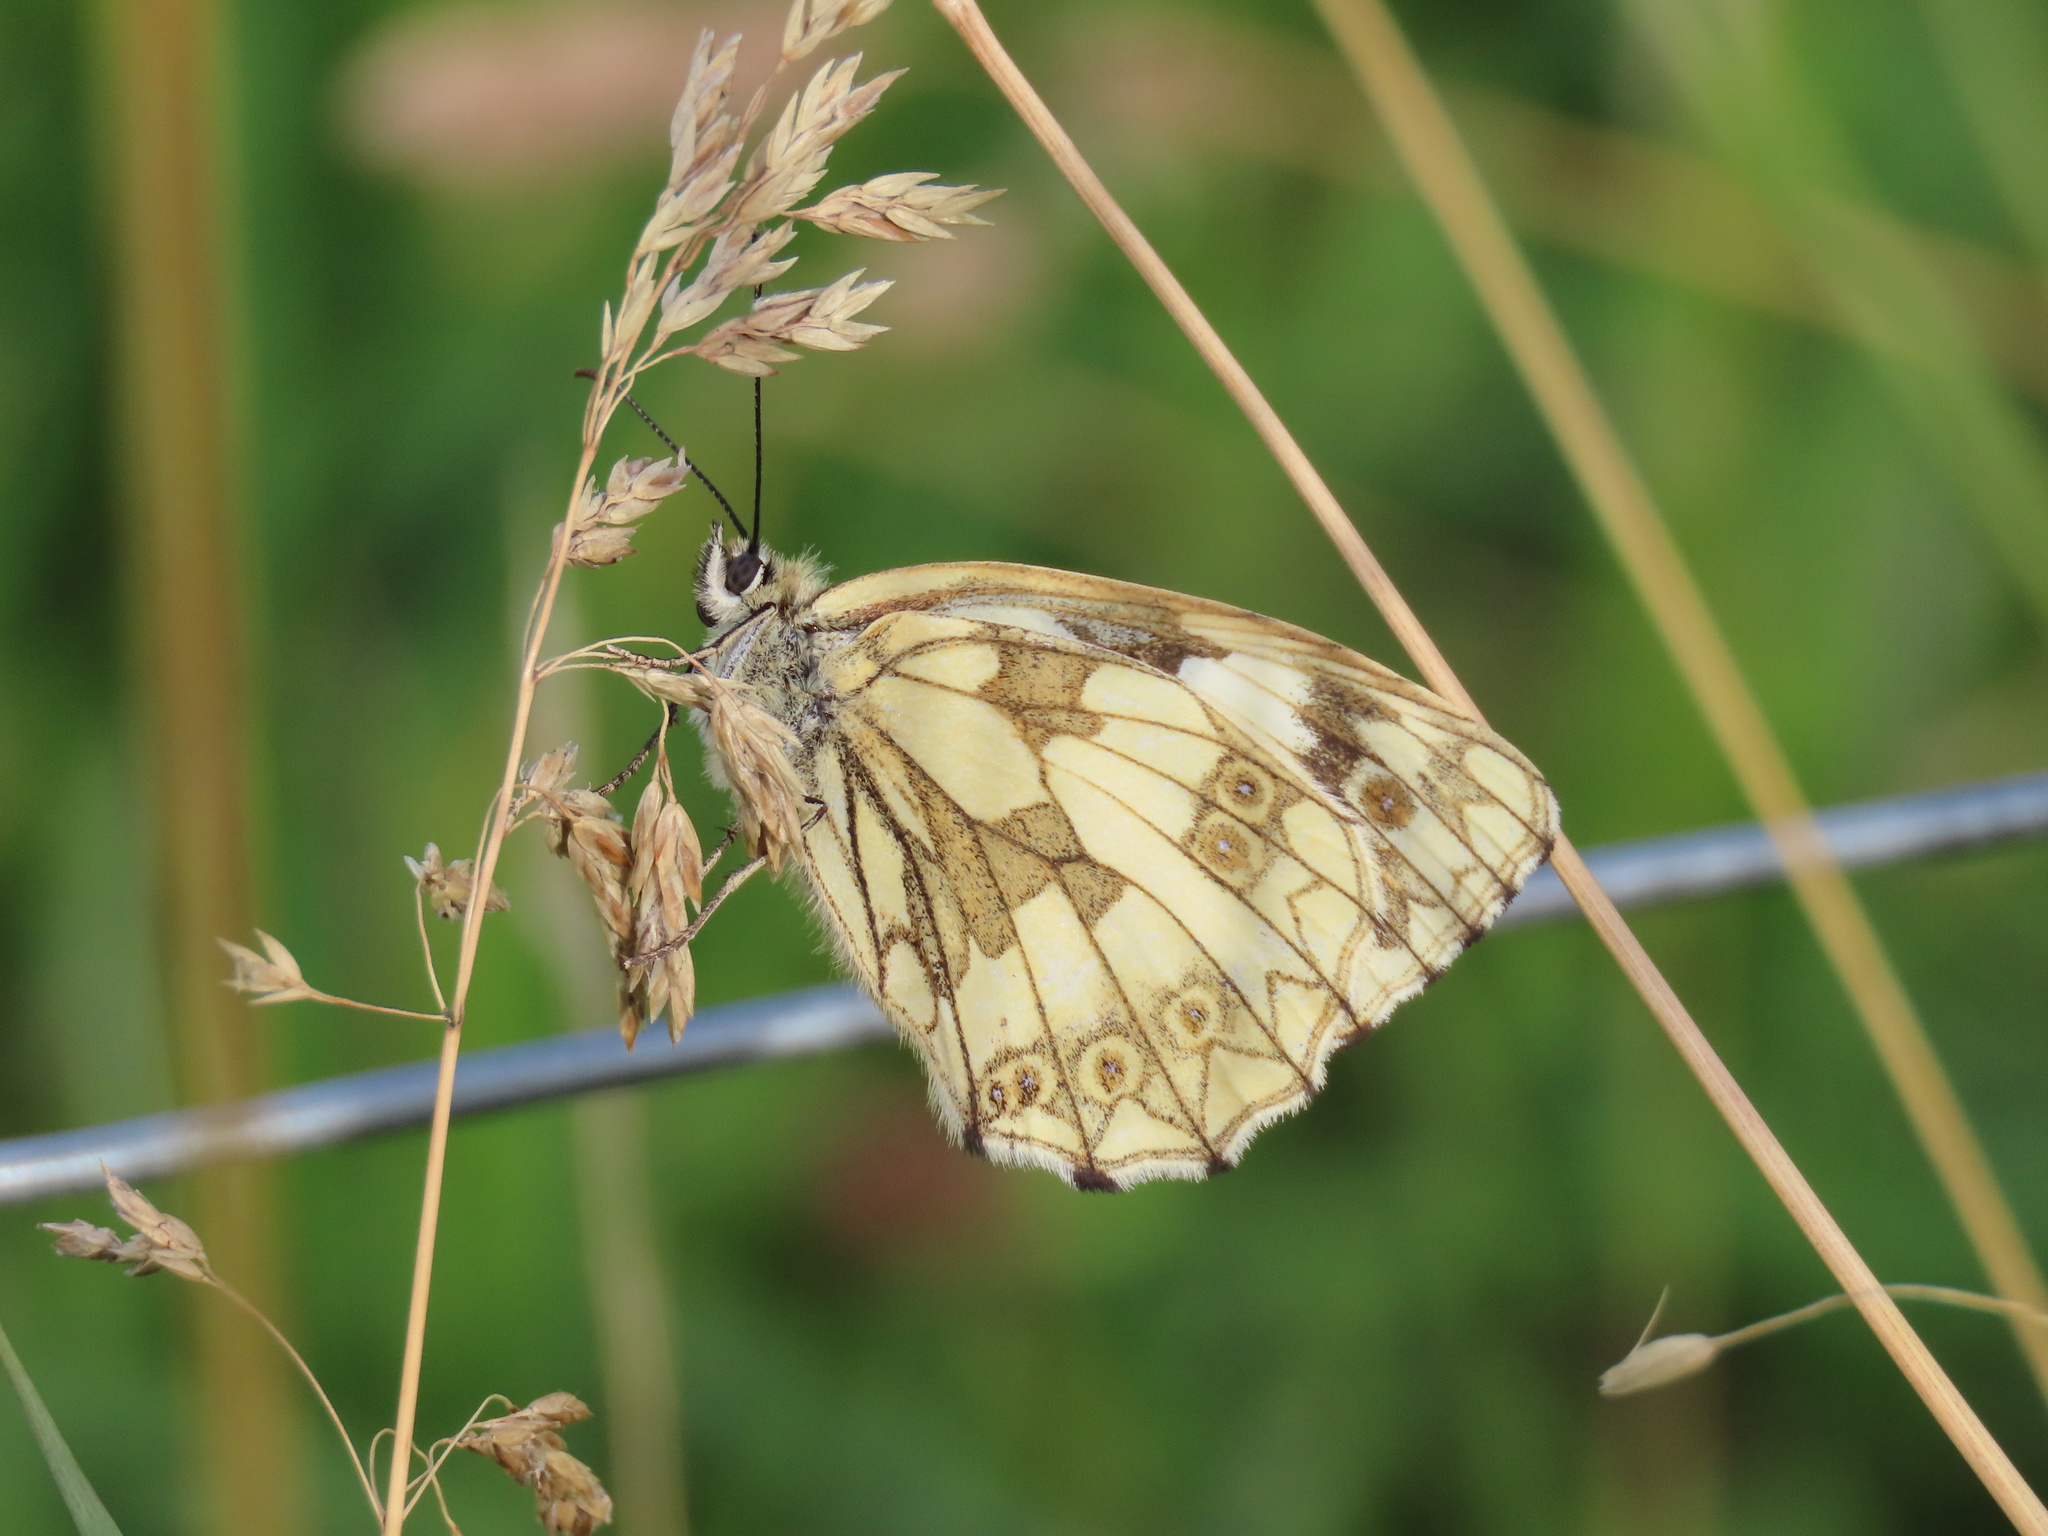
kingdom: Animalia
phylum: Arthropoda
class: Insecta
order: Lepidoptera
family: Nymphalidae
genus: Melanargia
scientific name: Melanargia galathea
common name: Marbled white
